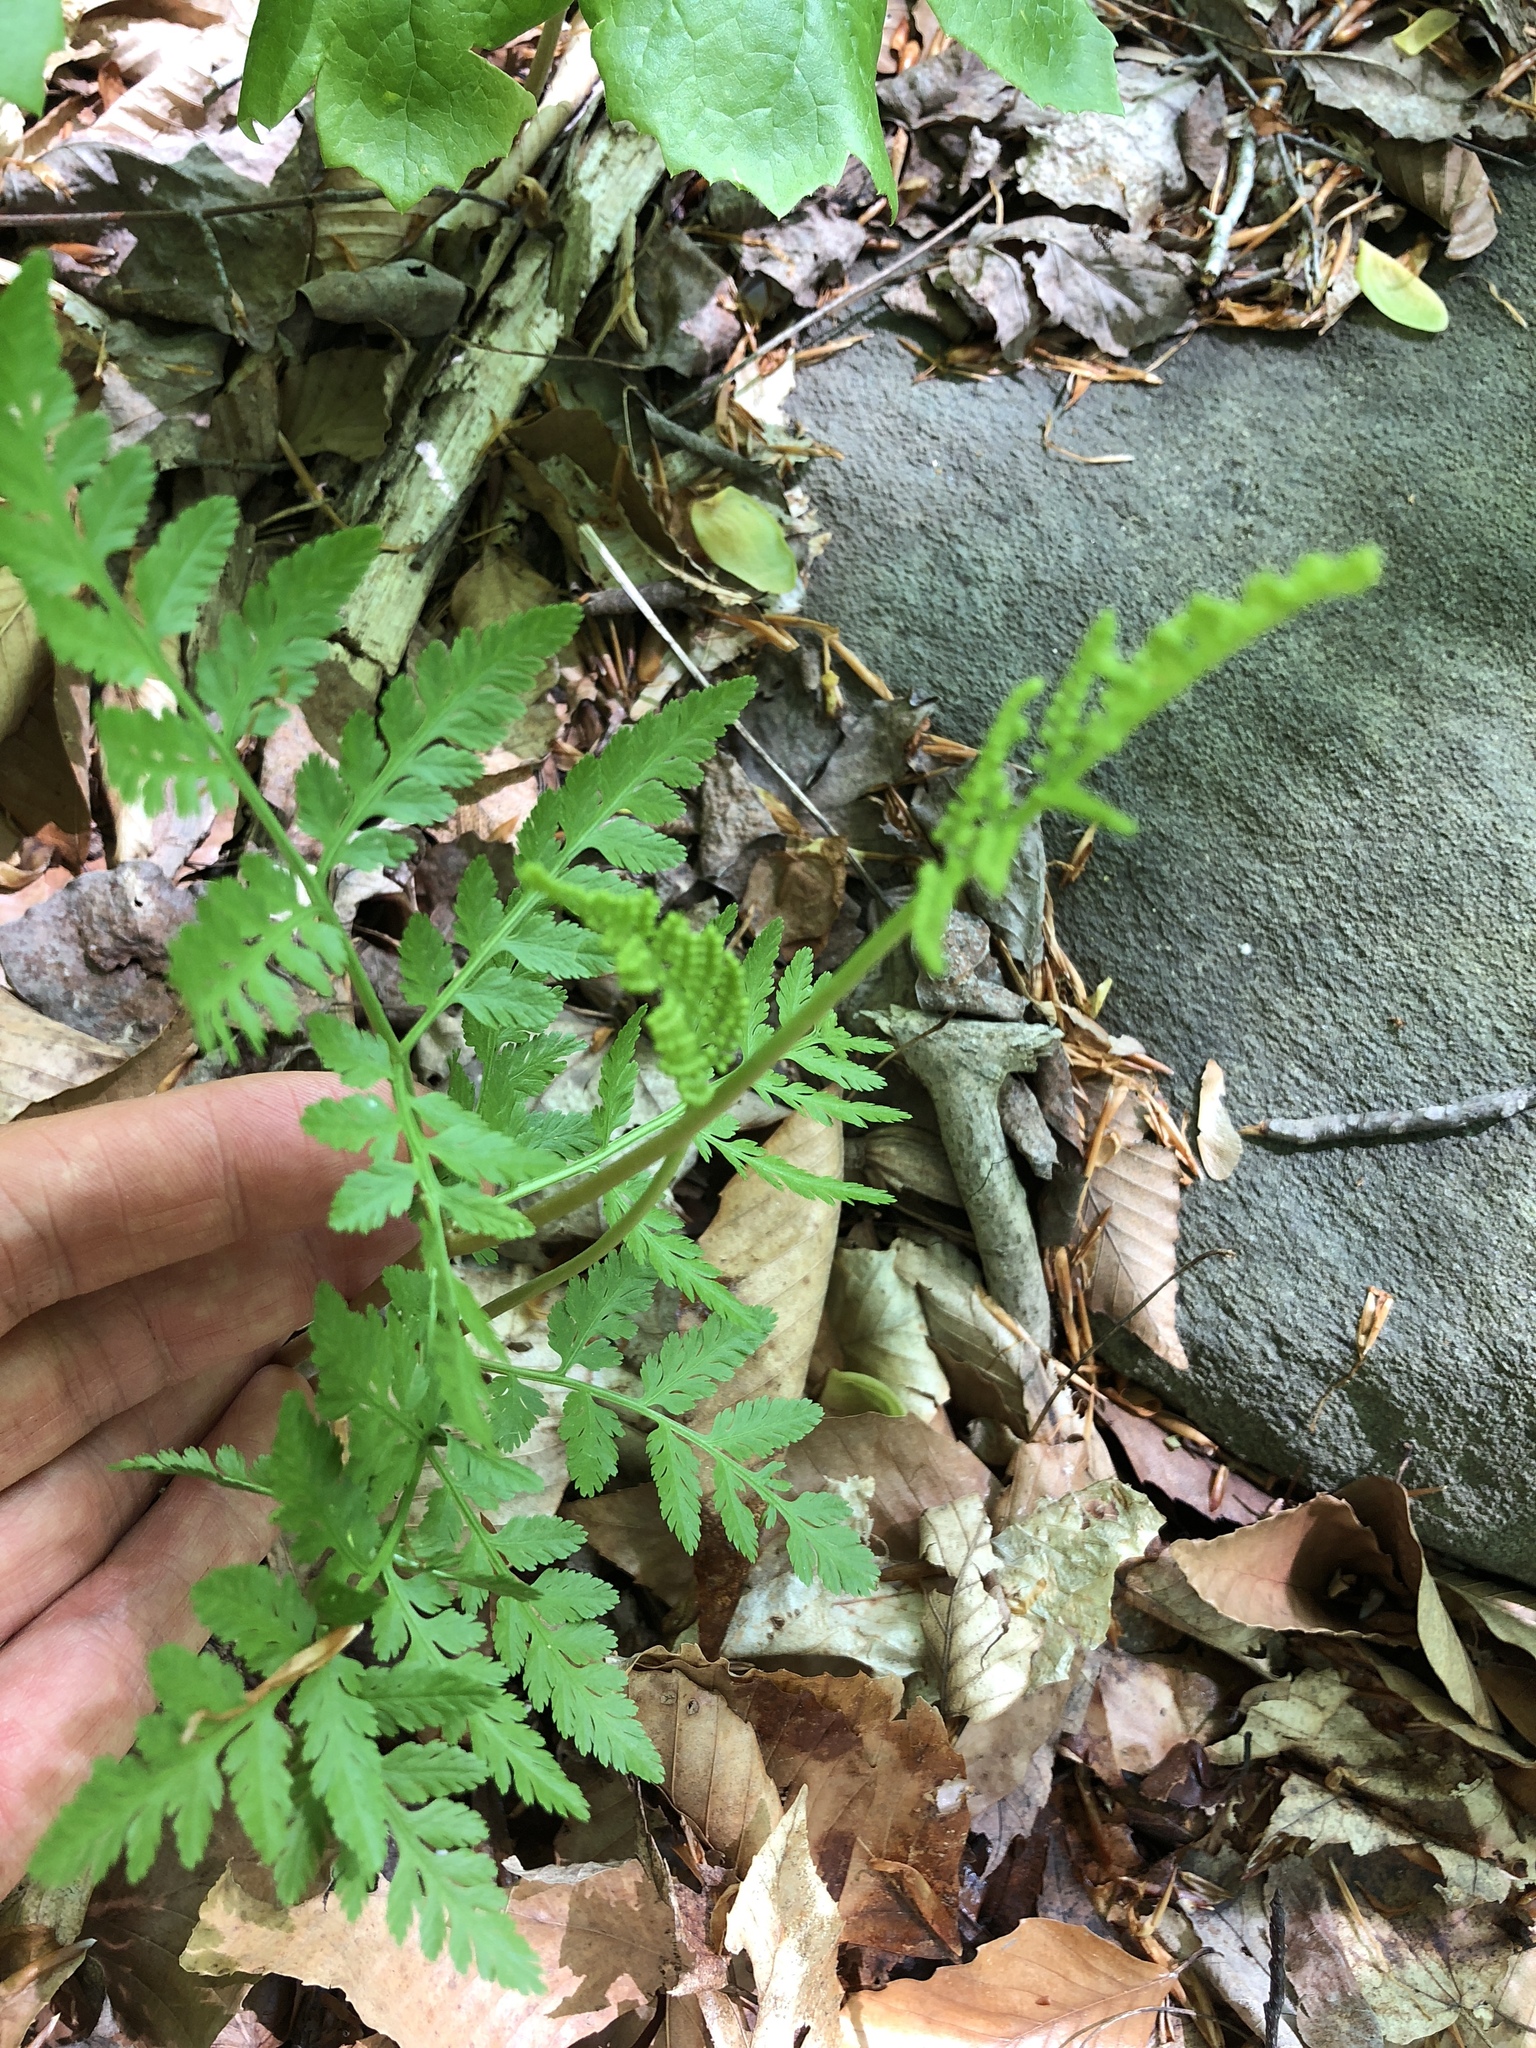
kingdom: Plantae
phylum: Tracheophyta
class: Polypodiopsida
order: Ophioglossales
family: Ophioglossaceae
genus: Botrypus
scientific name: Botrypus virginianus
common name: Common grapefern
